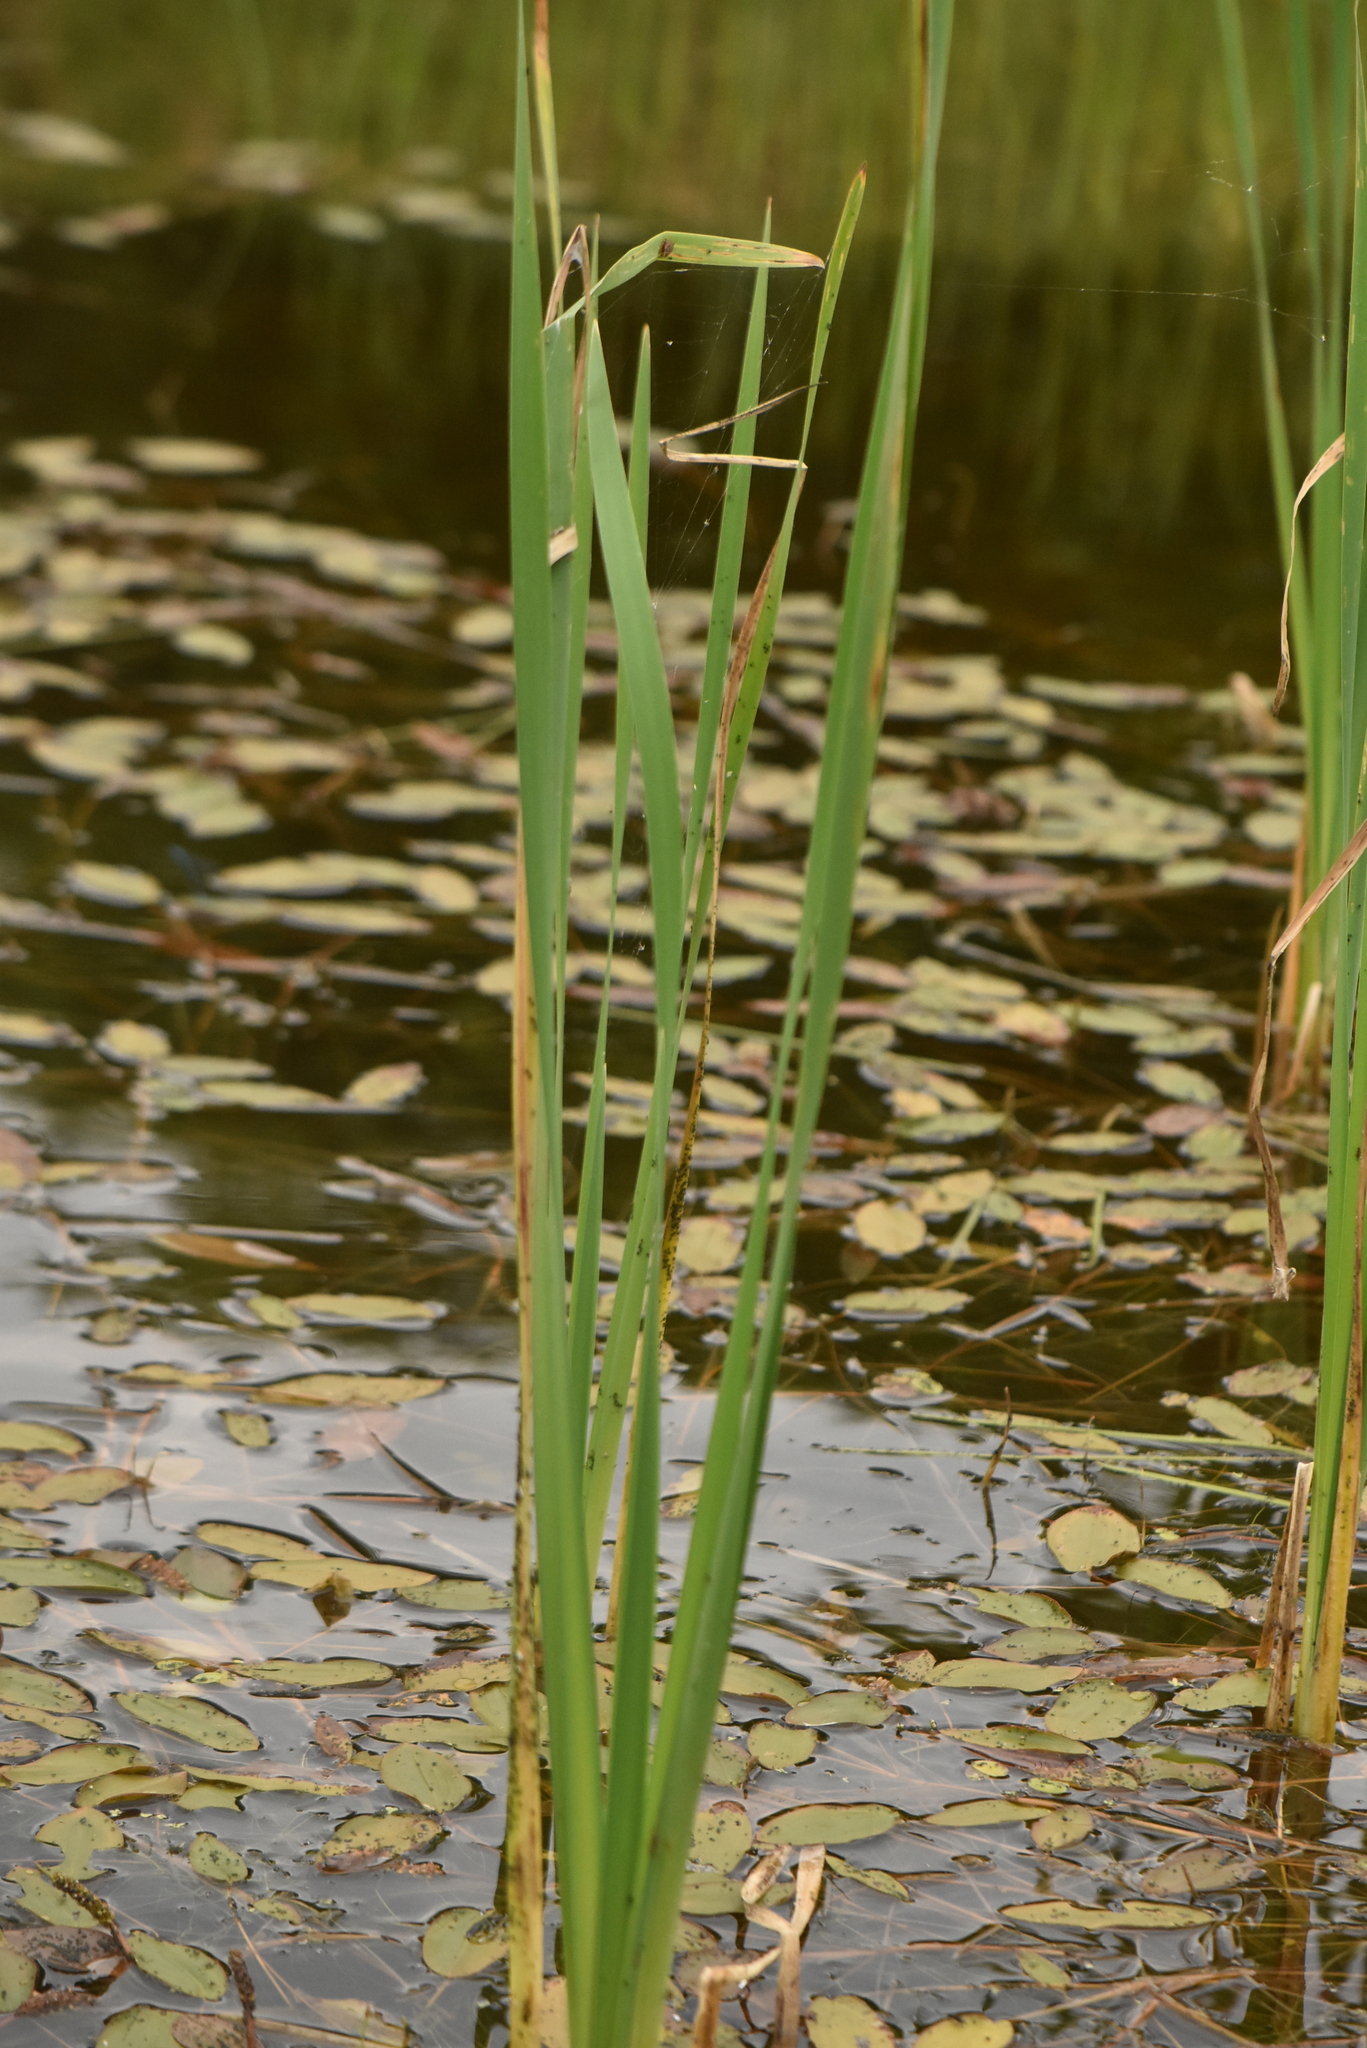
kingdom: Plantae
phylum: Tracheophyta
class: Liliopsida
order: Poales
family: Typhaceae
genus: Typha
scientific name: Typha latifolia
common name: Broadleaf cattail
